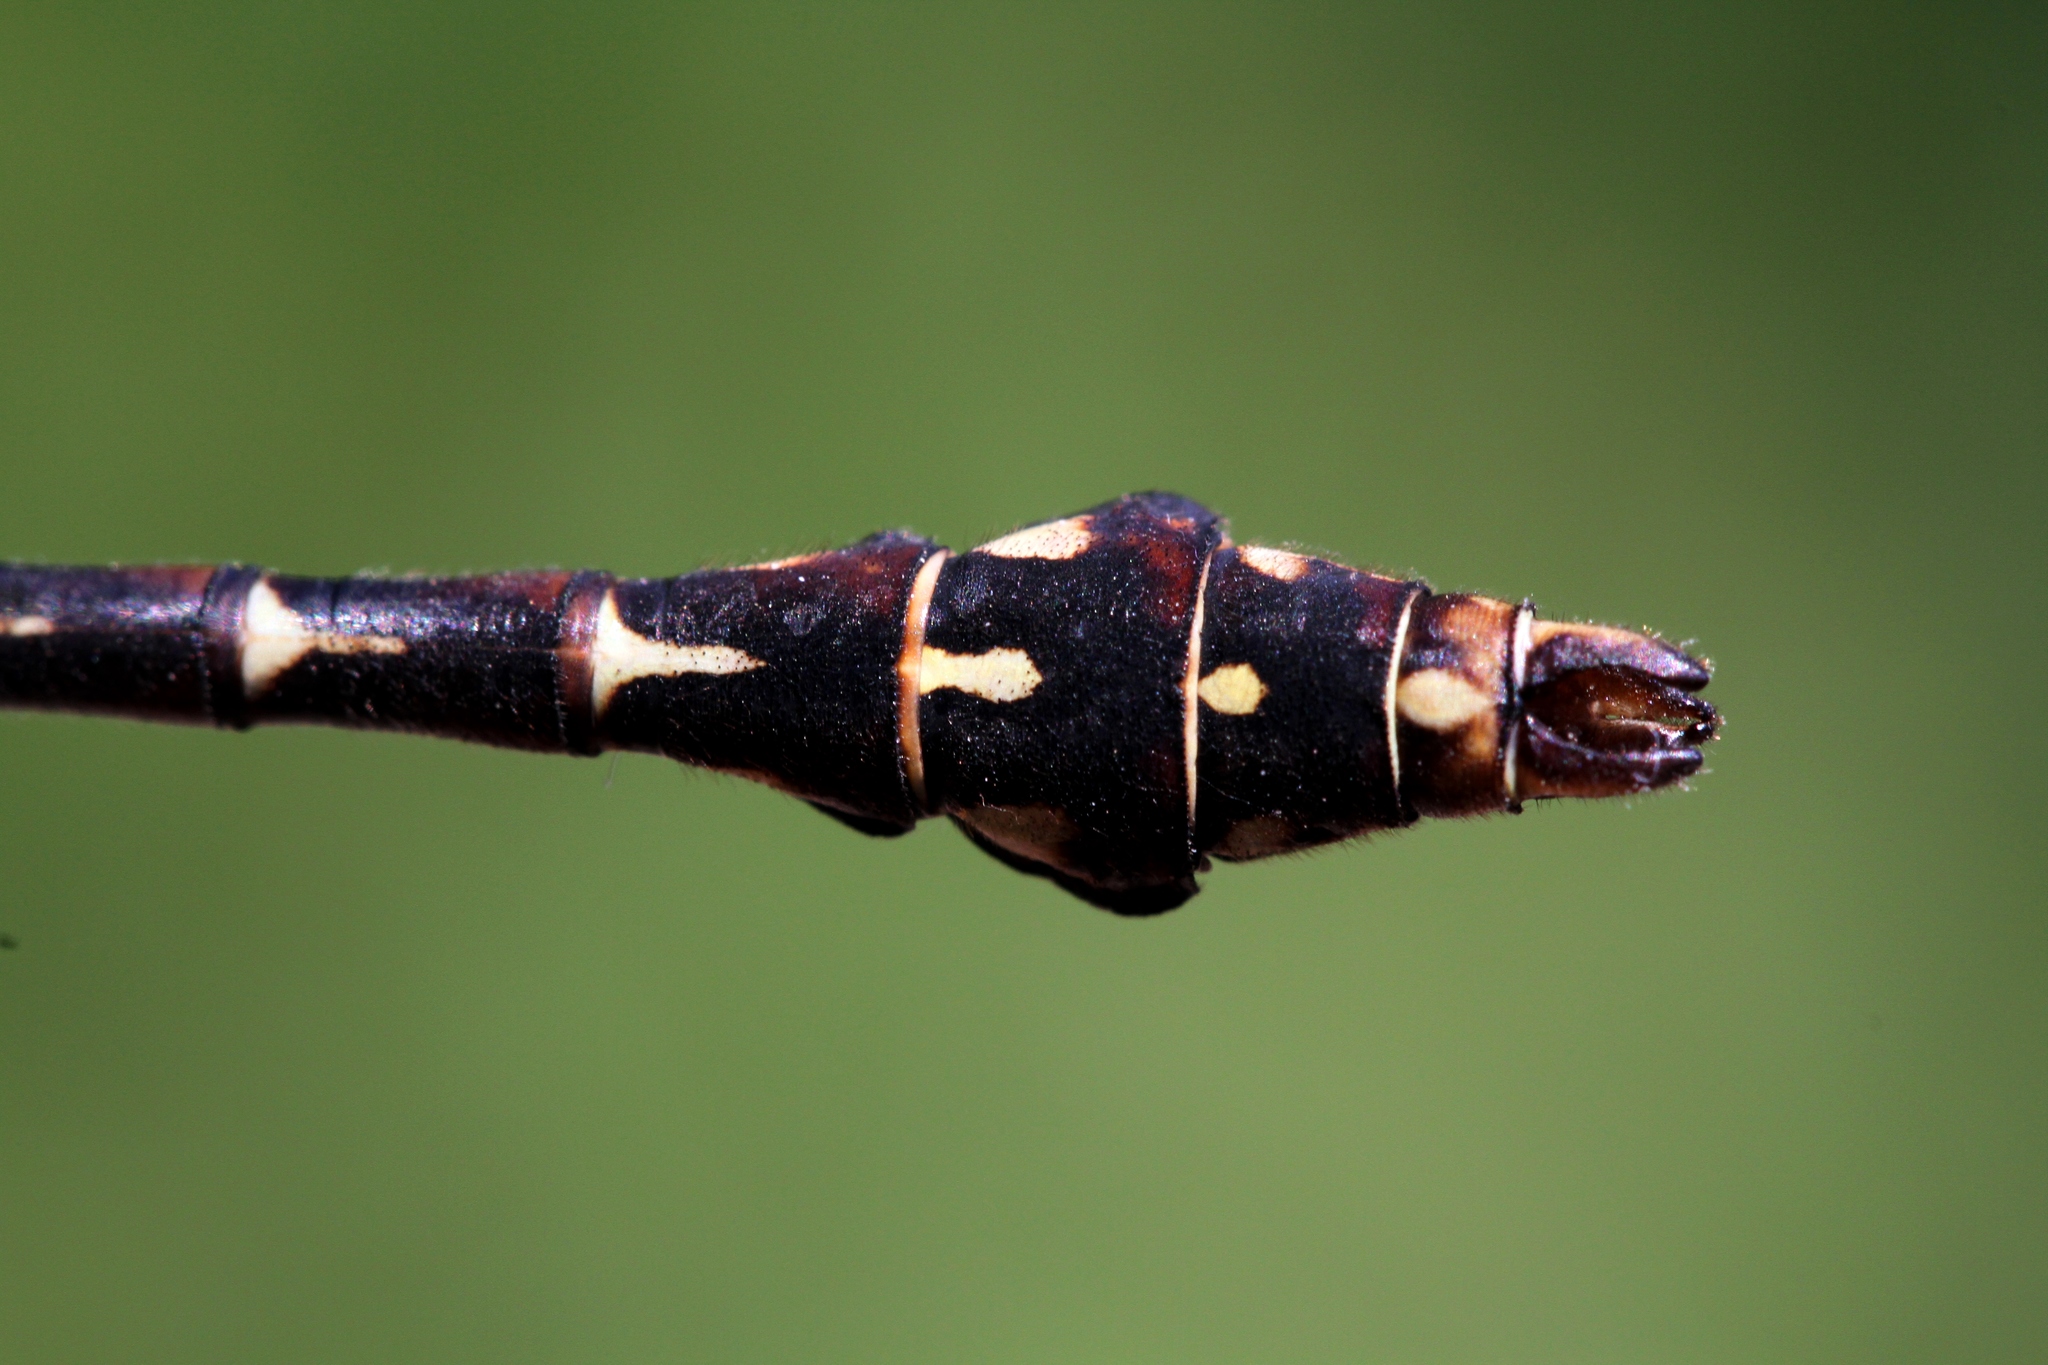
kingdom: Animalia
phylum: Arthropoda
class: Insecta
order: Odonata
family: Gomphidae
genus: Ophiogomphus
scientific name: Ophiogomphus colubrinus
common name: Boreal snaketail
